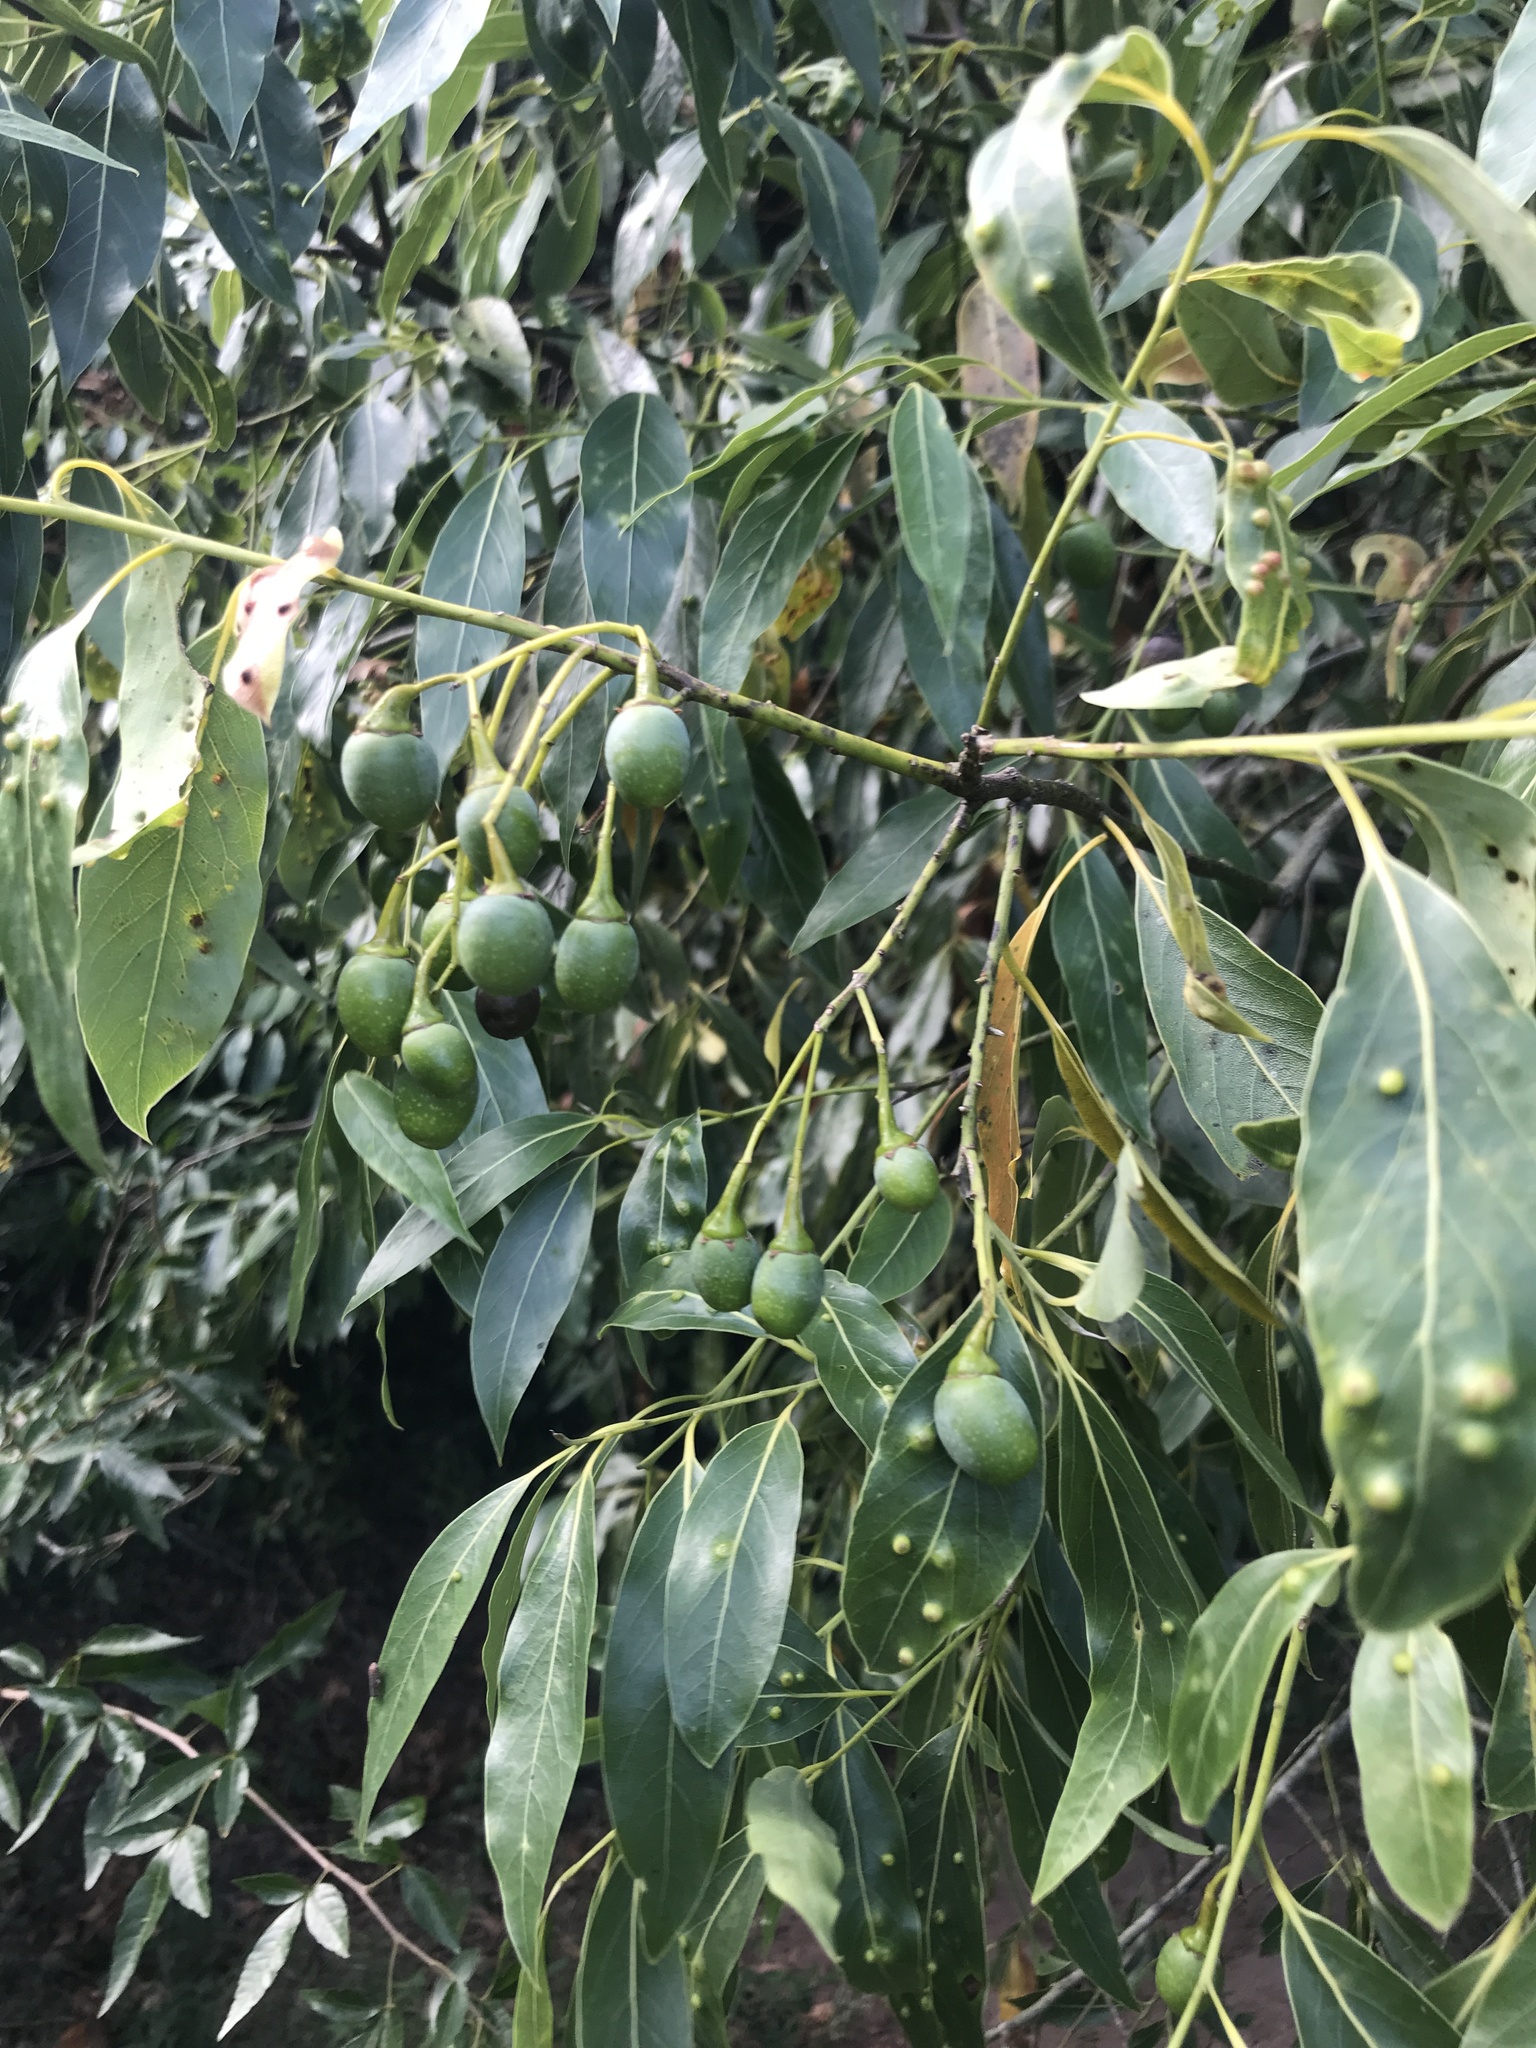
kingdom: Plantae
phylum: Tracheophyta
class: Magnoliopsida
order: Laurales
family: Lauraceae
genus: Ocotea
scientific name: Ocotea acutifolia
